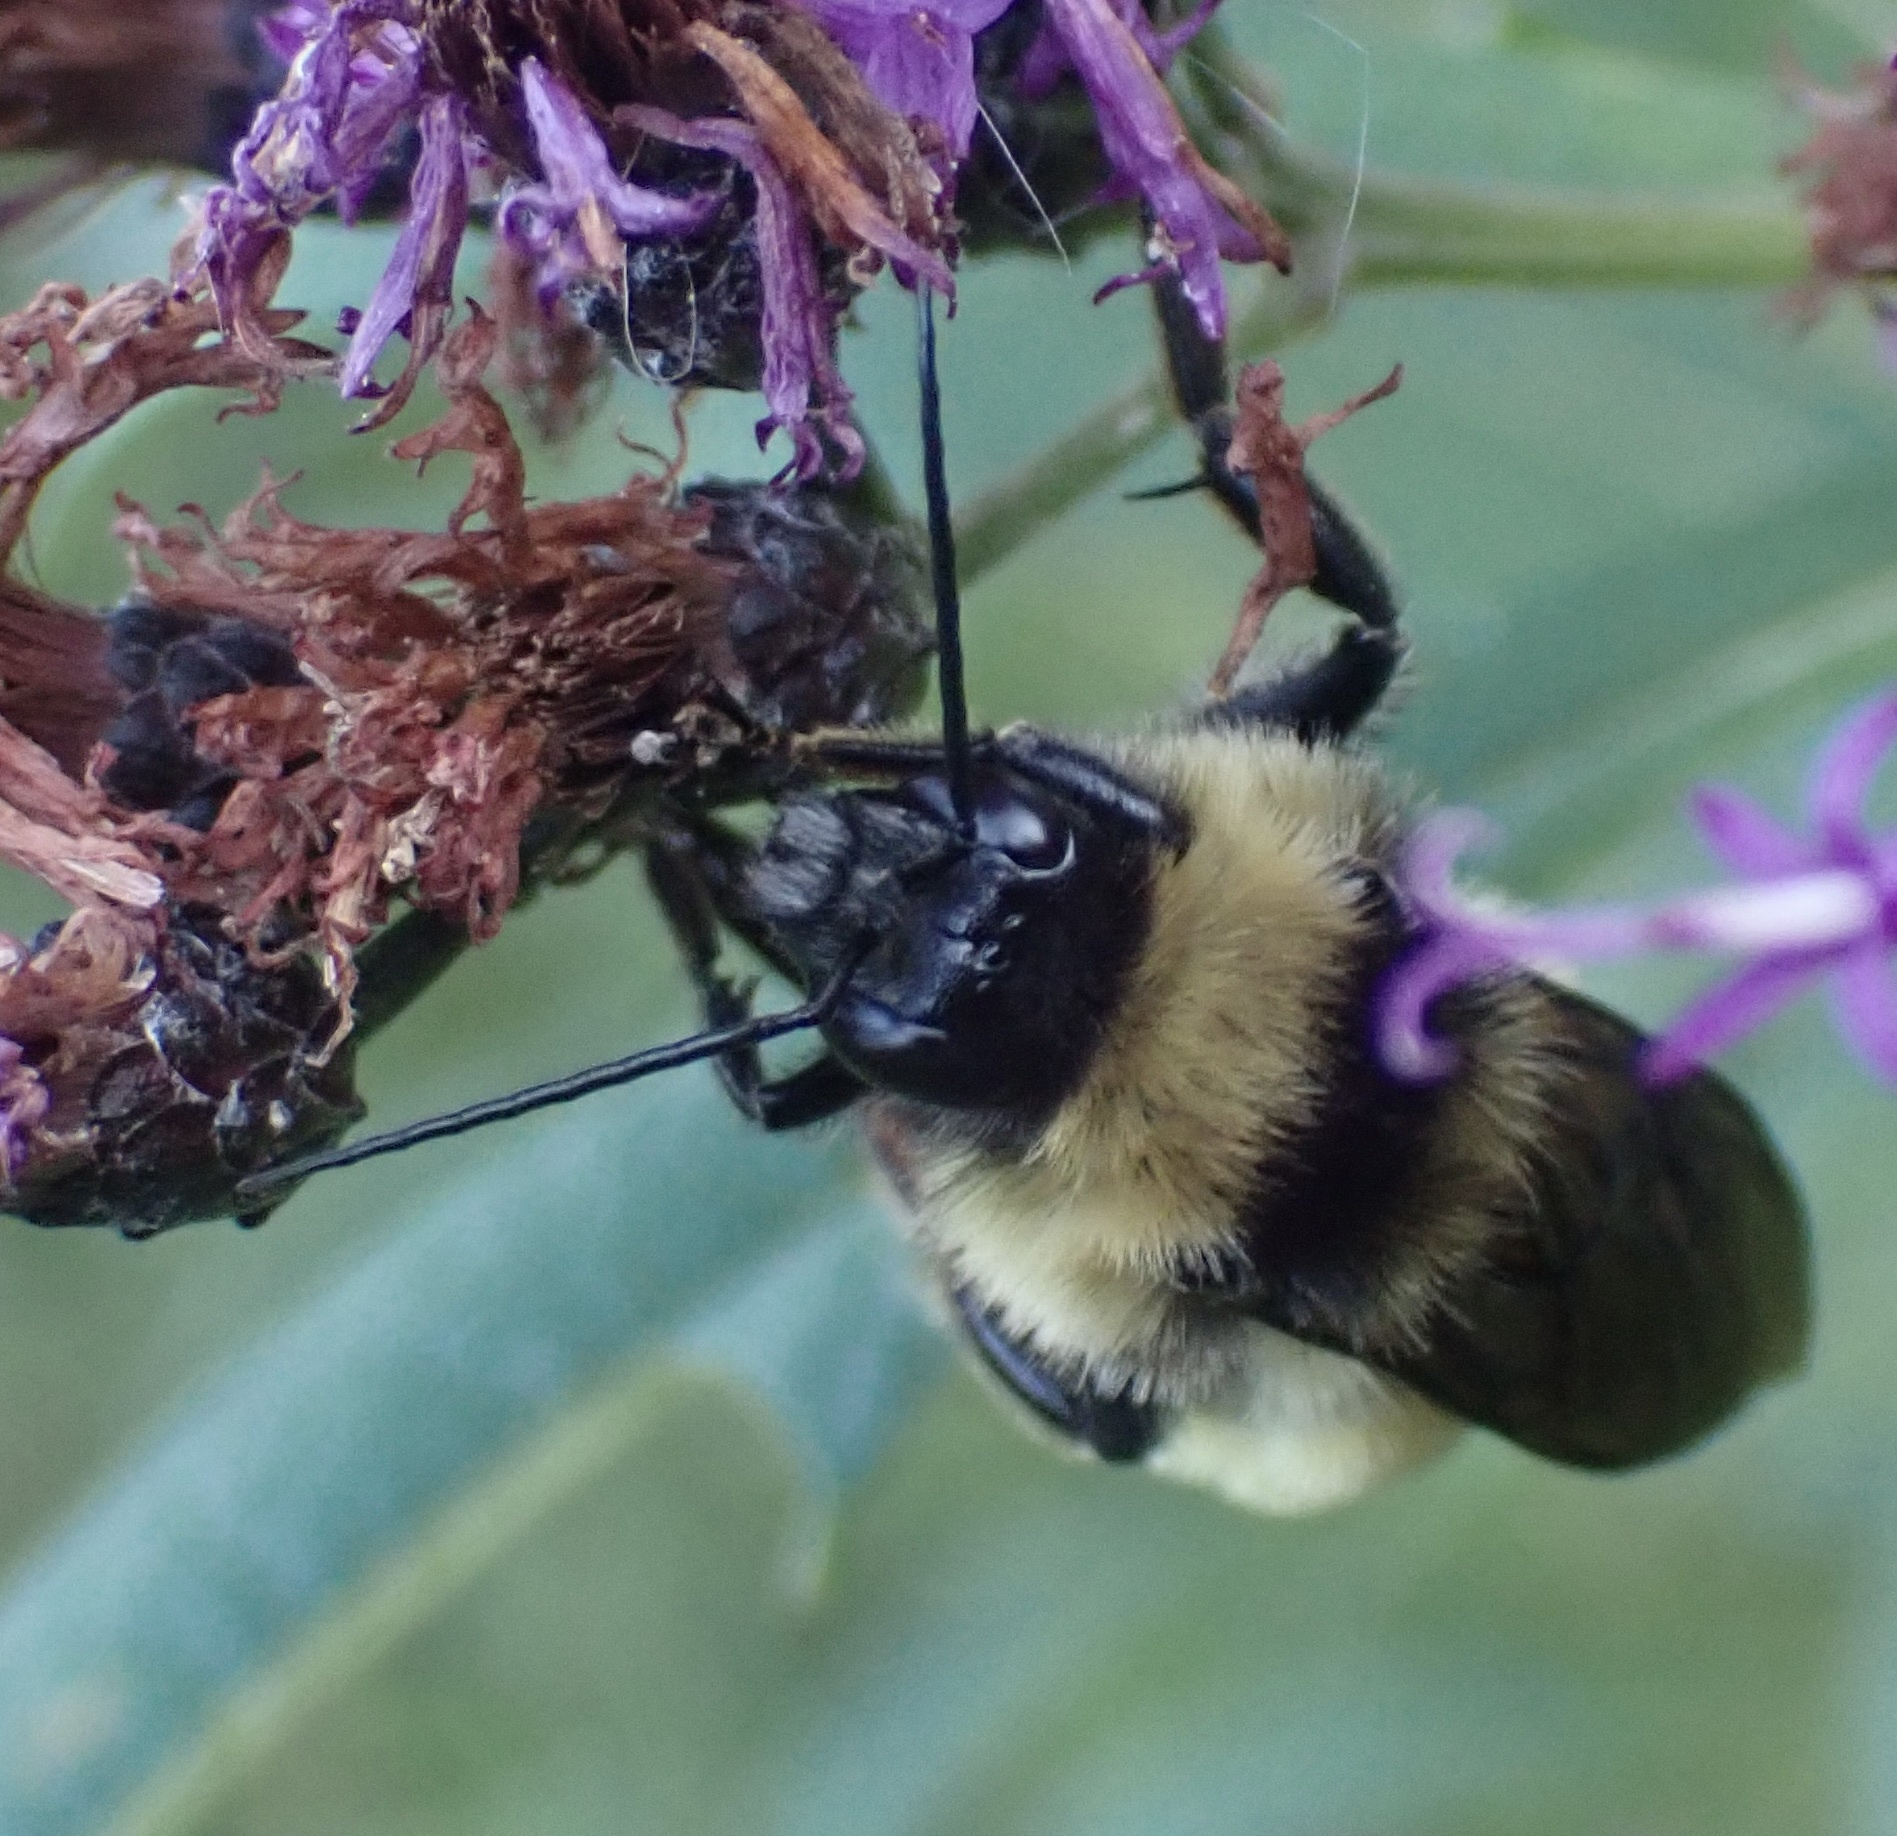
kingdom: Animalia
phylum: Arthropoda
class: Insecta
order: Hymenoptera
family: Apidae
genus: Bombus
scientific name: Bombus pensylvanicus
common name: Bumble bee
